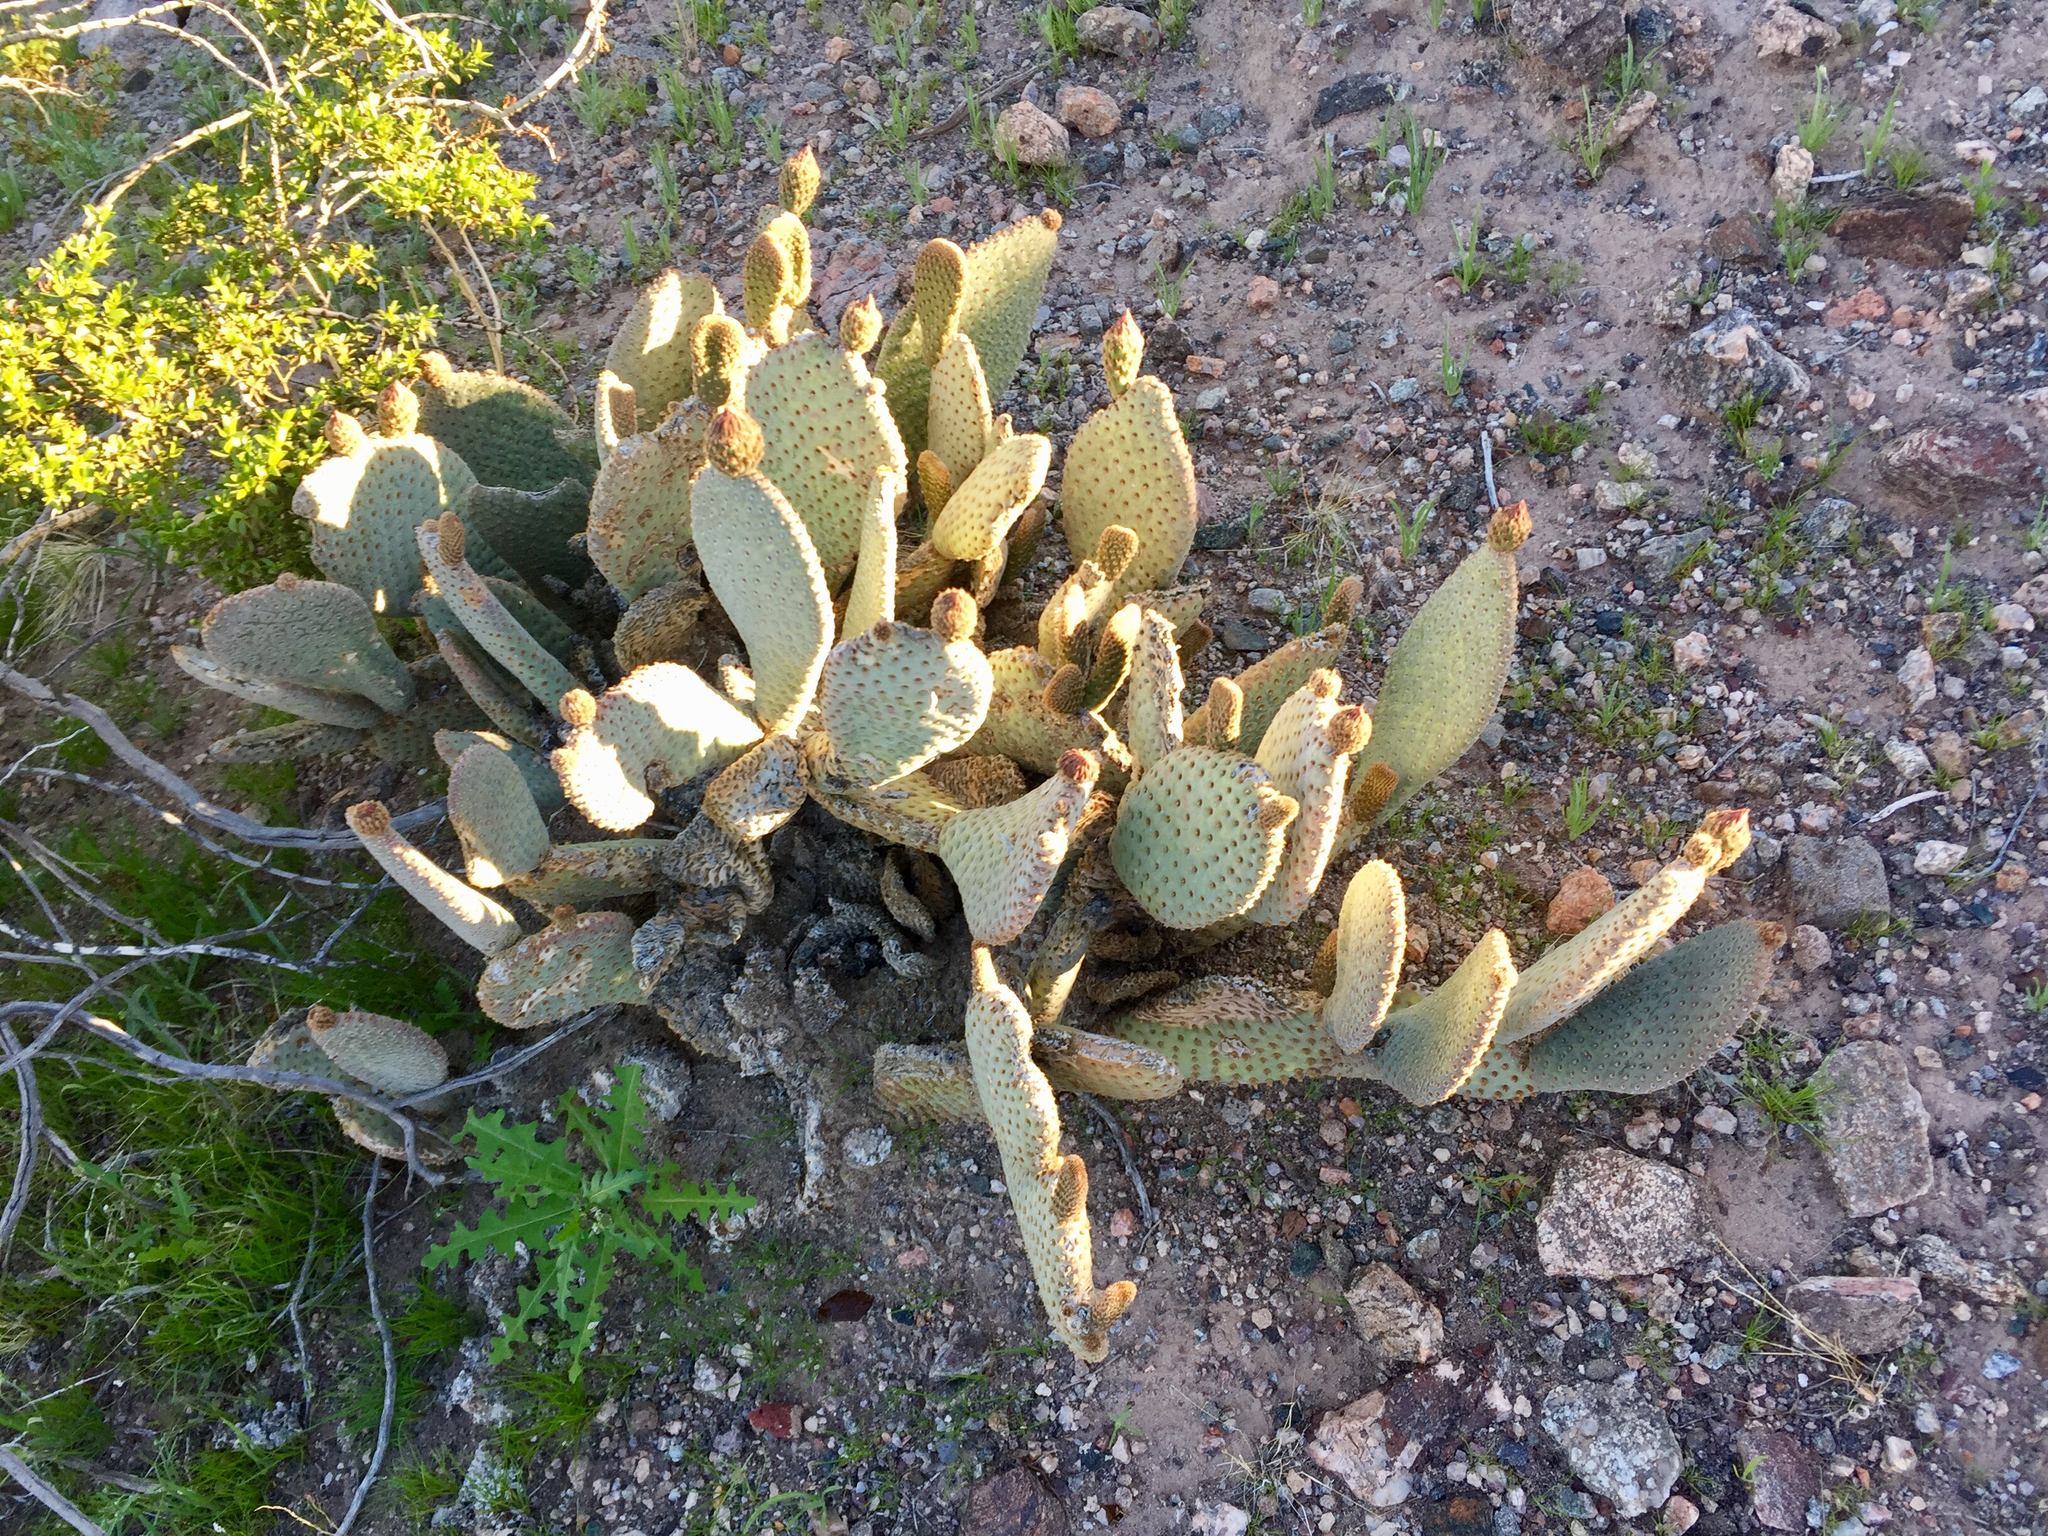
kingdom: Plantae
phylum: Tracheophyta
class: Magnoliopsida
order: Caryophyllales
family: Cactaceae
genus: Opuntia
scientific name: Opuntia basilaris
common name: Beavertail prickly-pear
